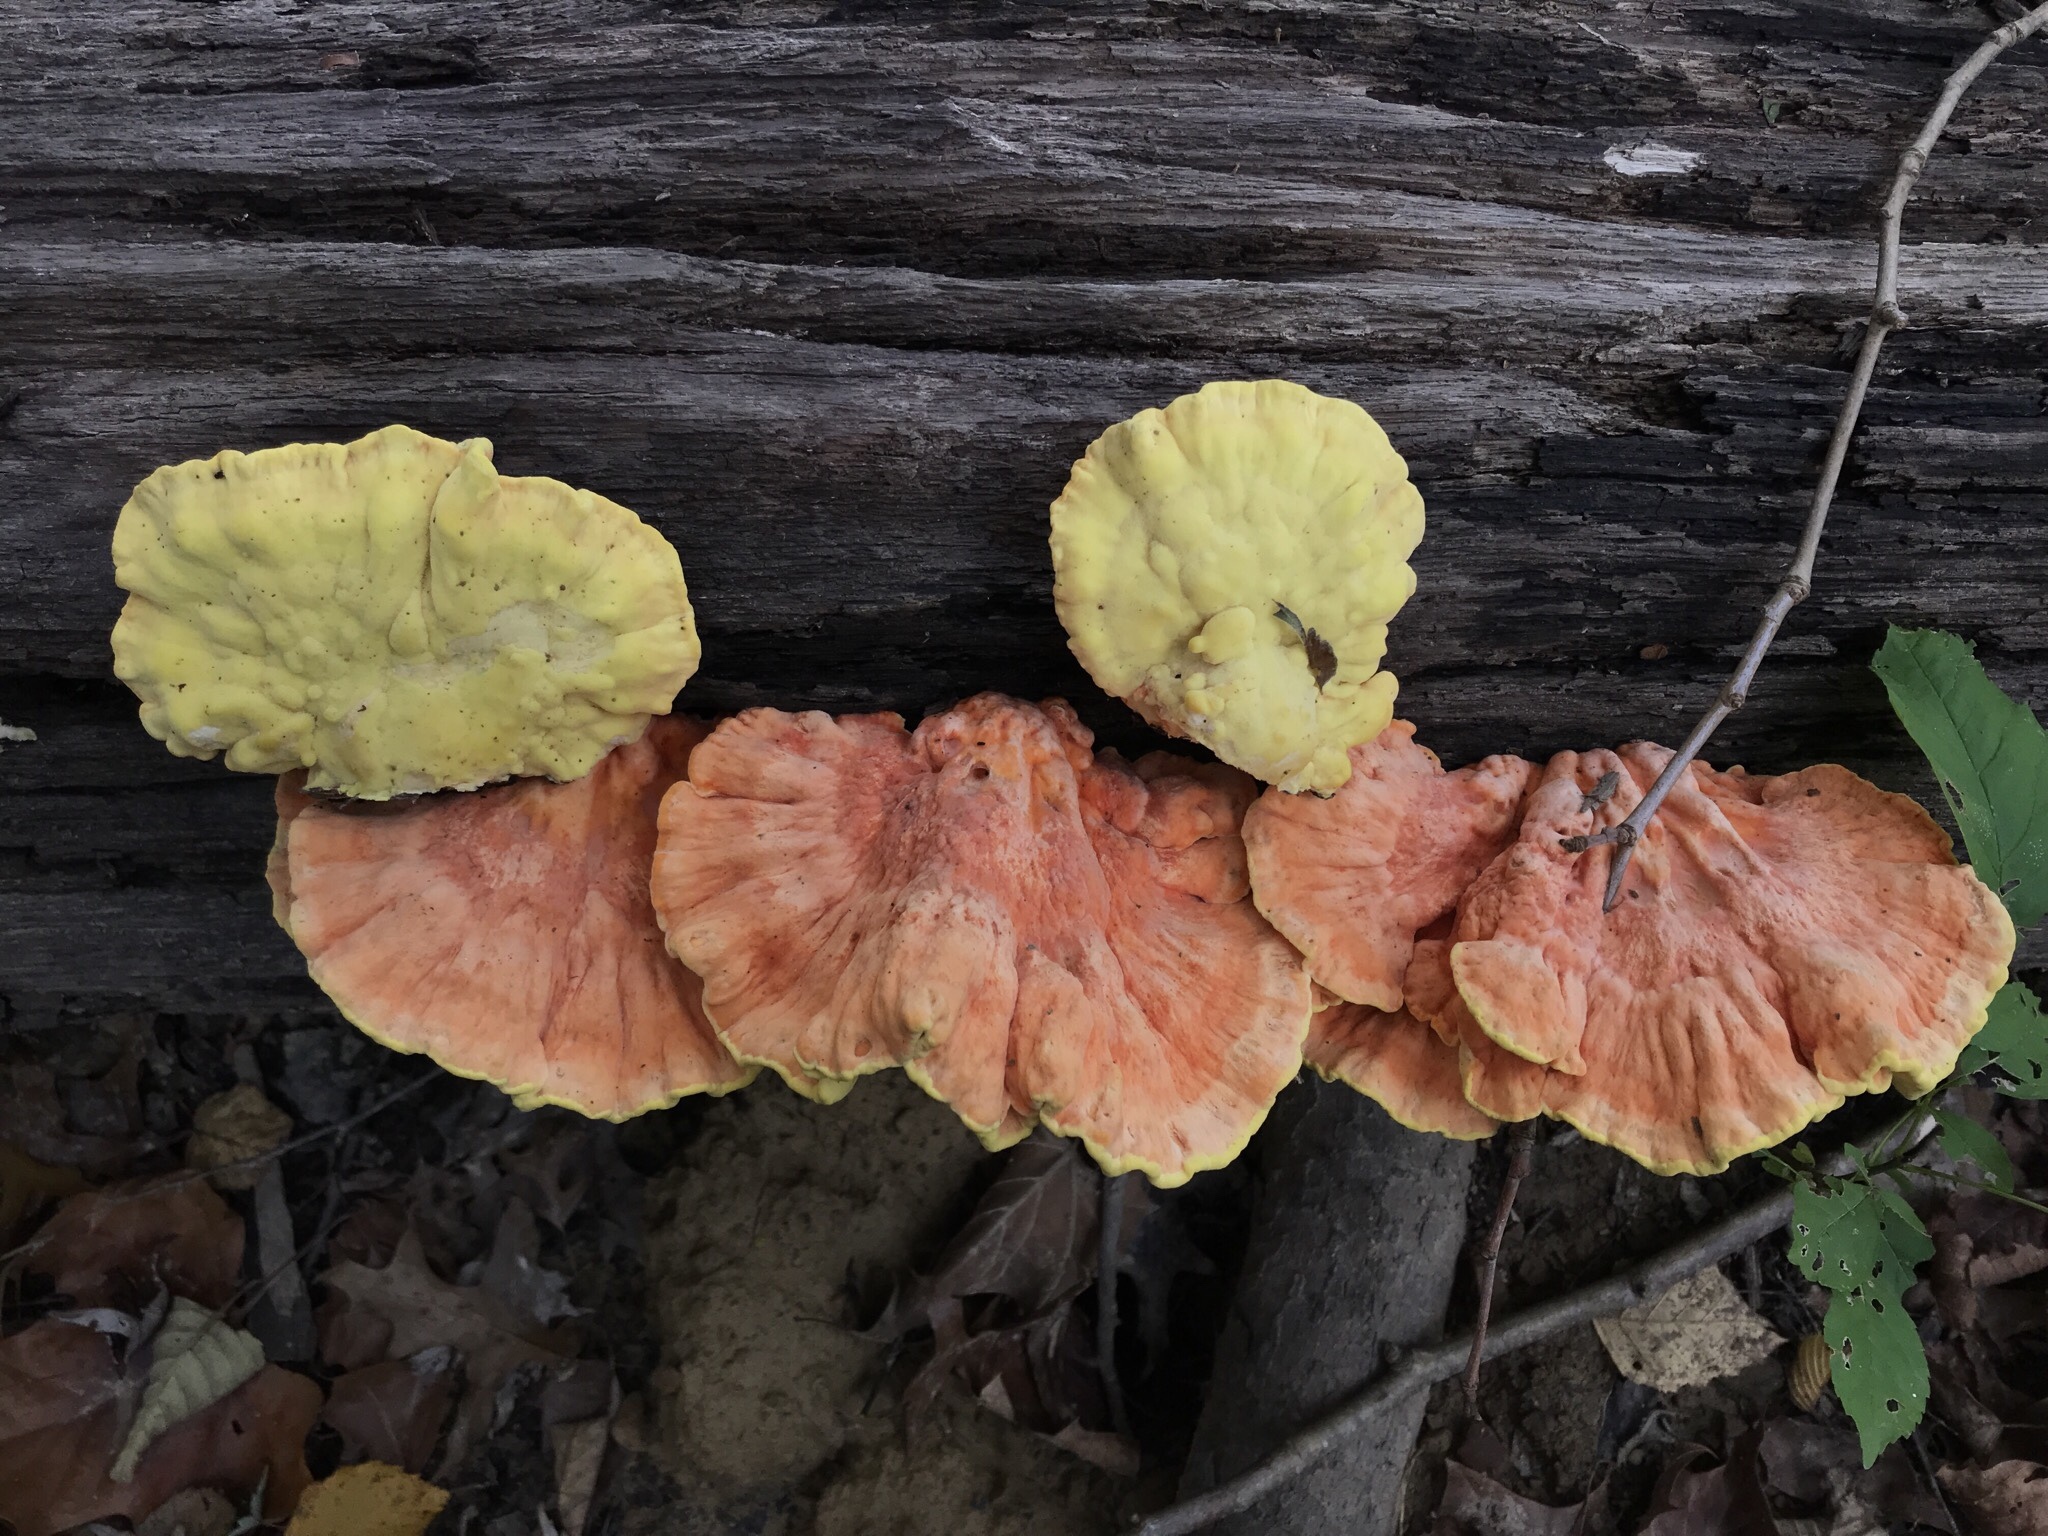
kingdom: Fungi
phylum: Basidiomycota
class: Agaricomycetes
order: Polyporales
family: Laetiporaceae
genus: Laetiporus
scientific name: Laetiporus sulphureus
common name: Chicken of the woods
